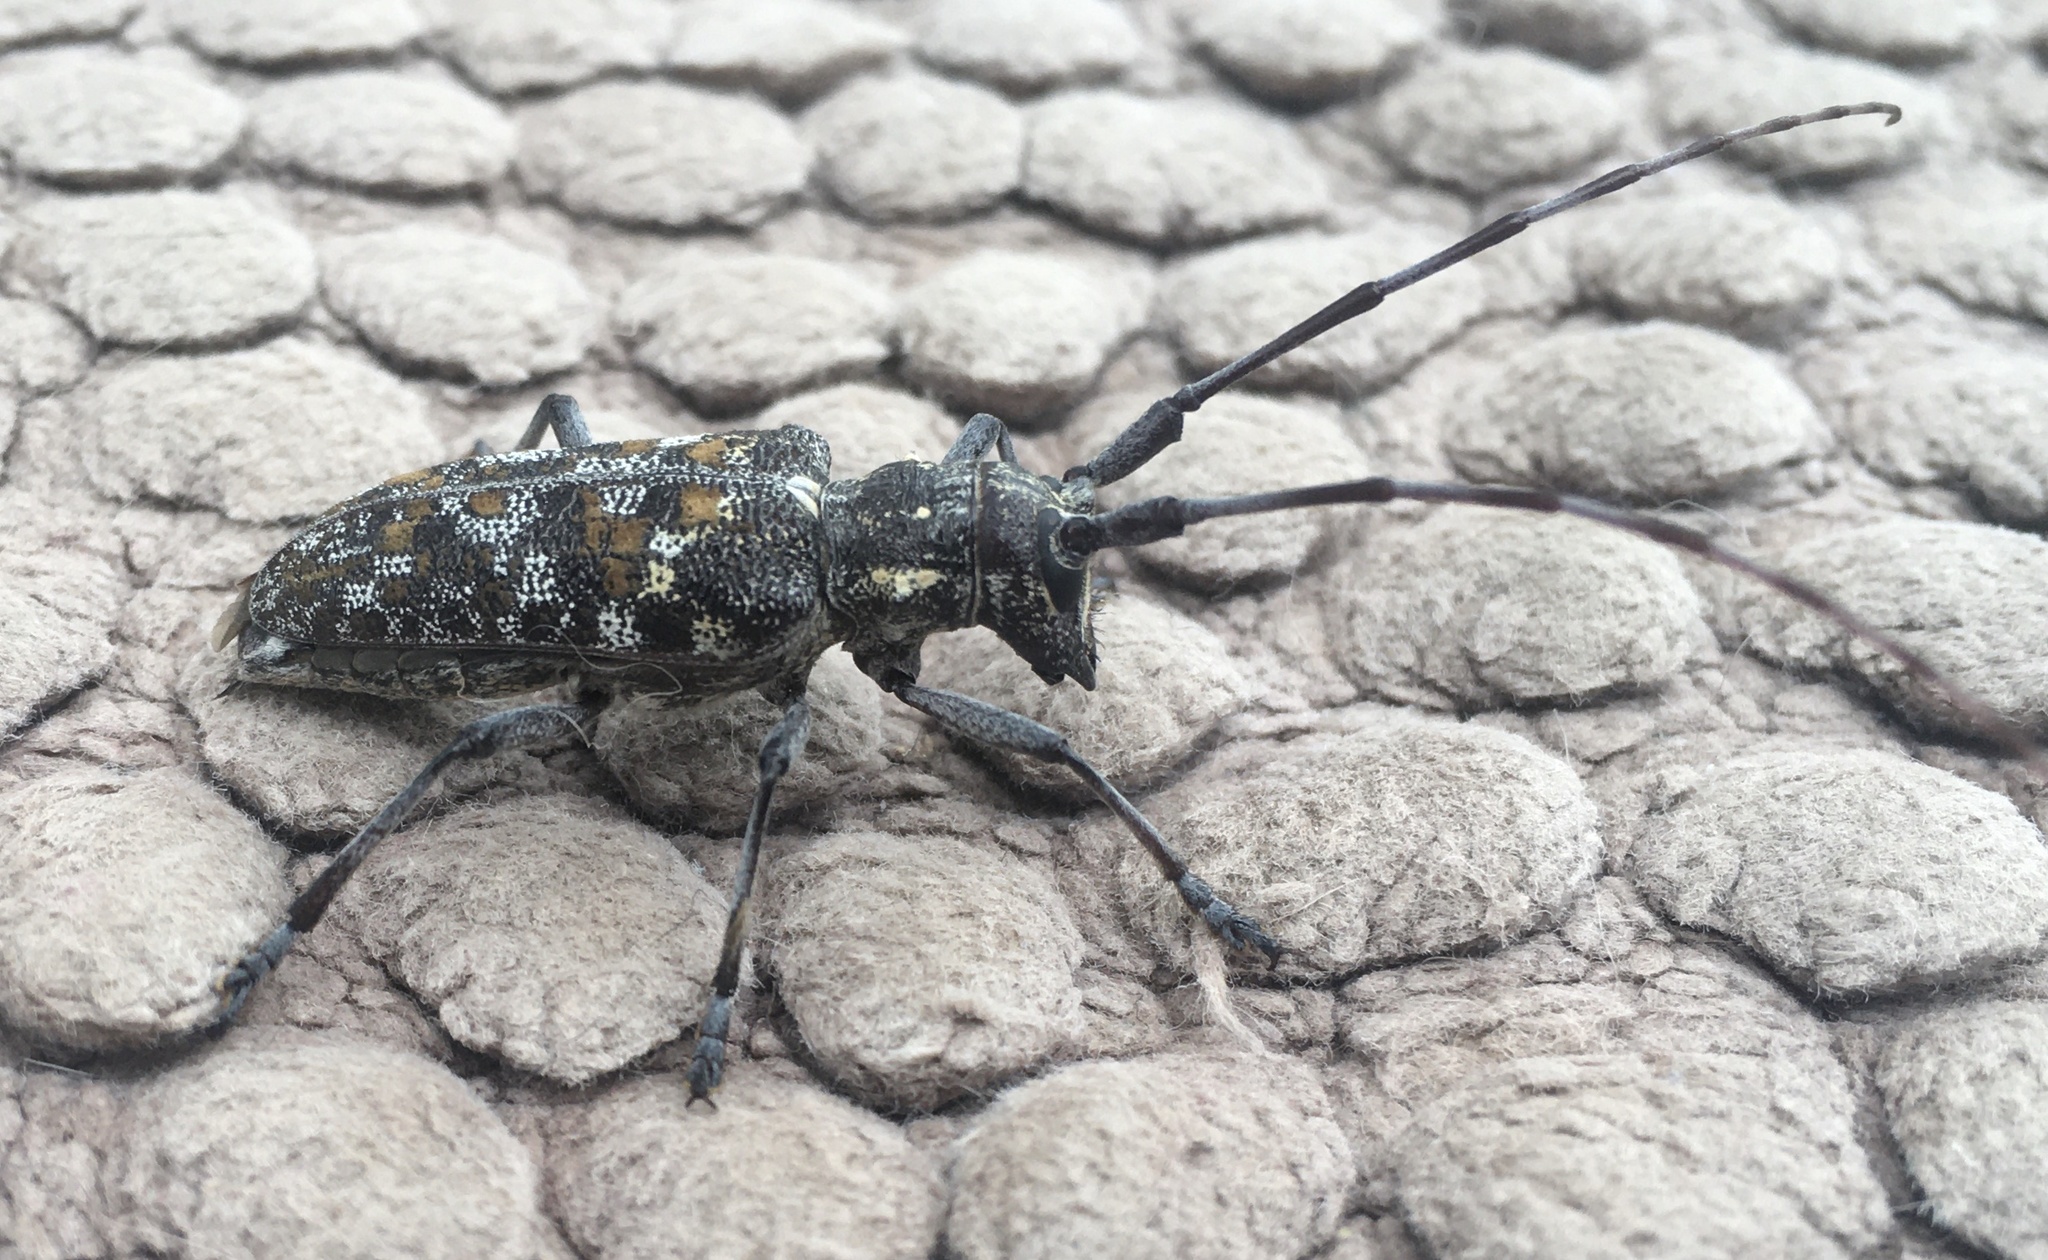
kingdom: Animalia
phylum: Arthropoda
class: Insecta
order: Coleoptera
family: Cerambycidae
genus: Monochamus
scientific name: Monochamus clamator
